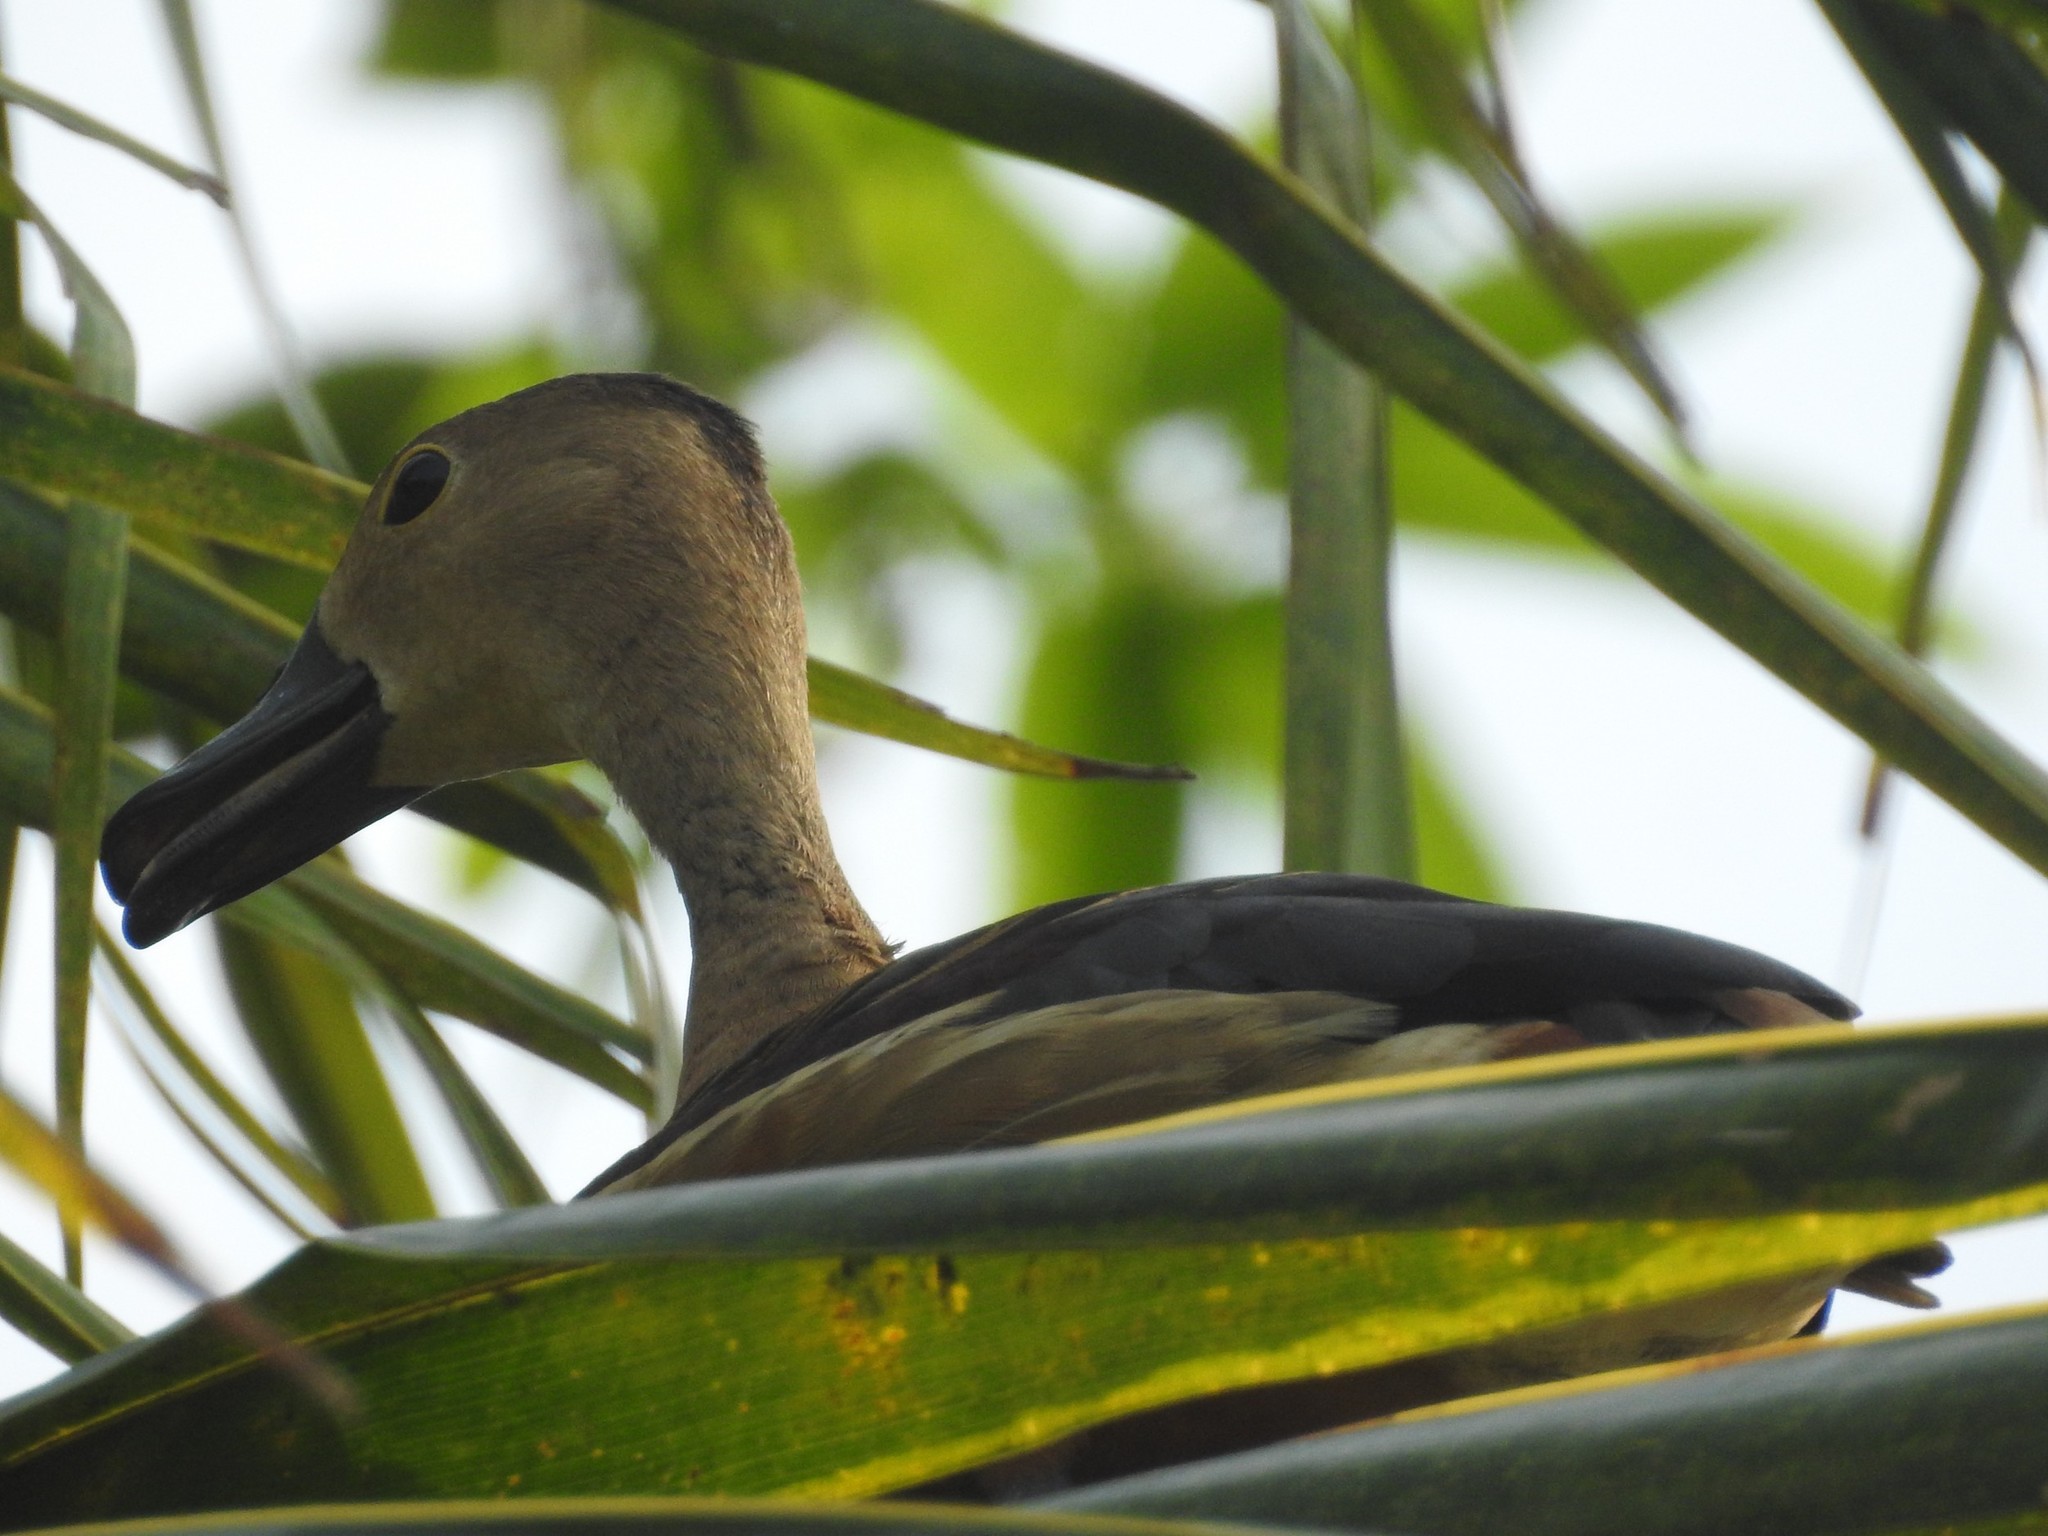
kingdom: Animalia
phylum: Chordata
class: Aves
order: Anseriformes
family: Anatidae
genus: Dendrocygna
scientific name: Dendrocygna javanica
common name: Lesser whistling-duck
